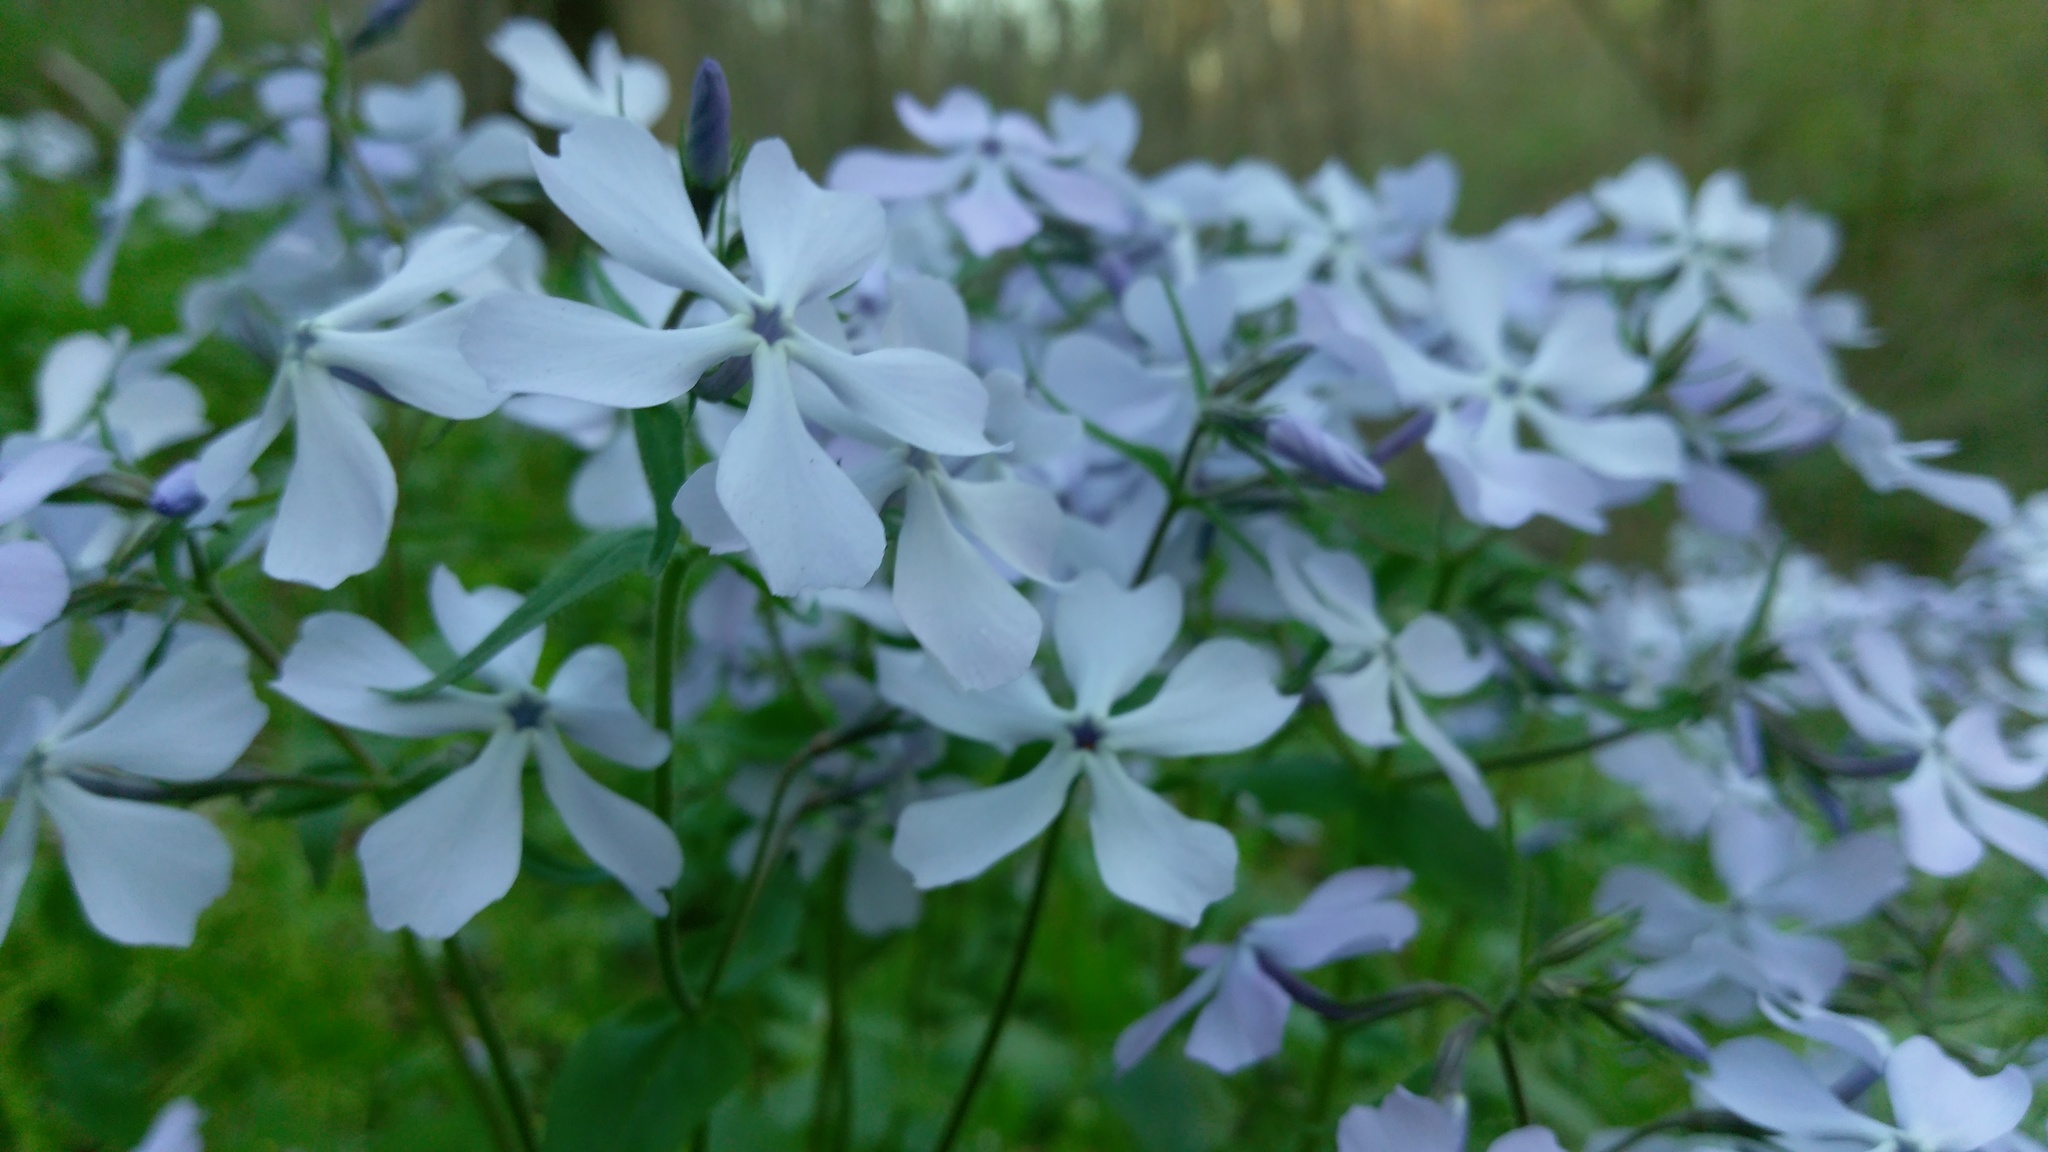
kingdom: Plantae
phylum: Tracheophyta
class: Magnoliopsida
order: Ericales
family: Polemoniaceae
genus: Phlox
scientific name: Phlox divaricata
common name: Blue phlox
